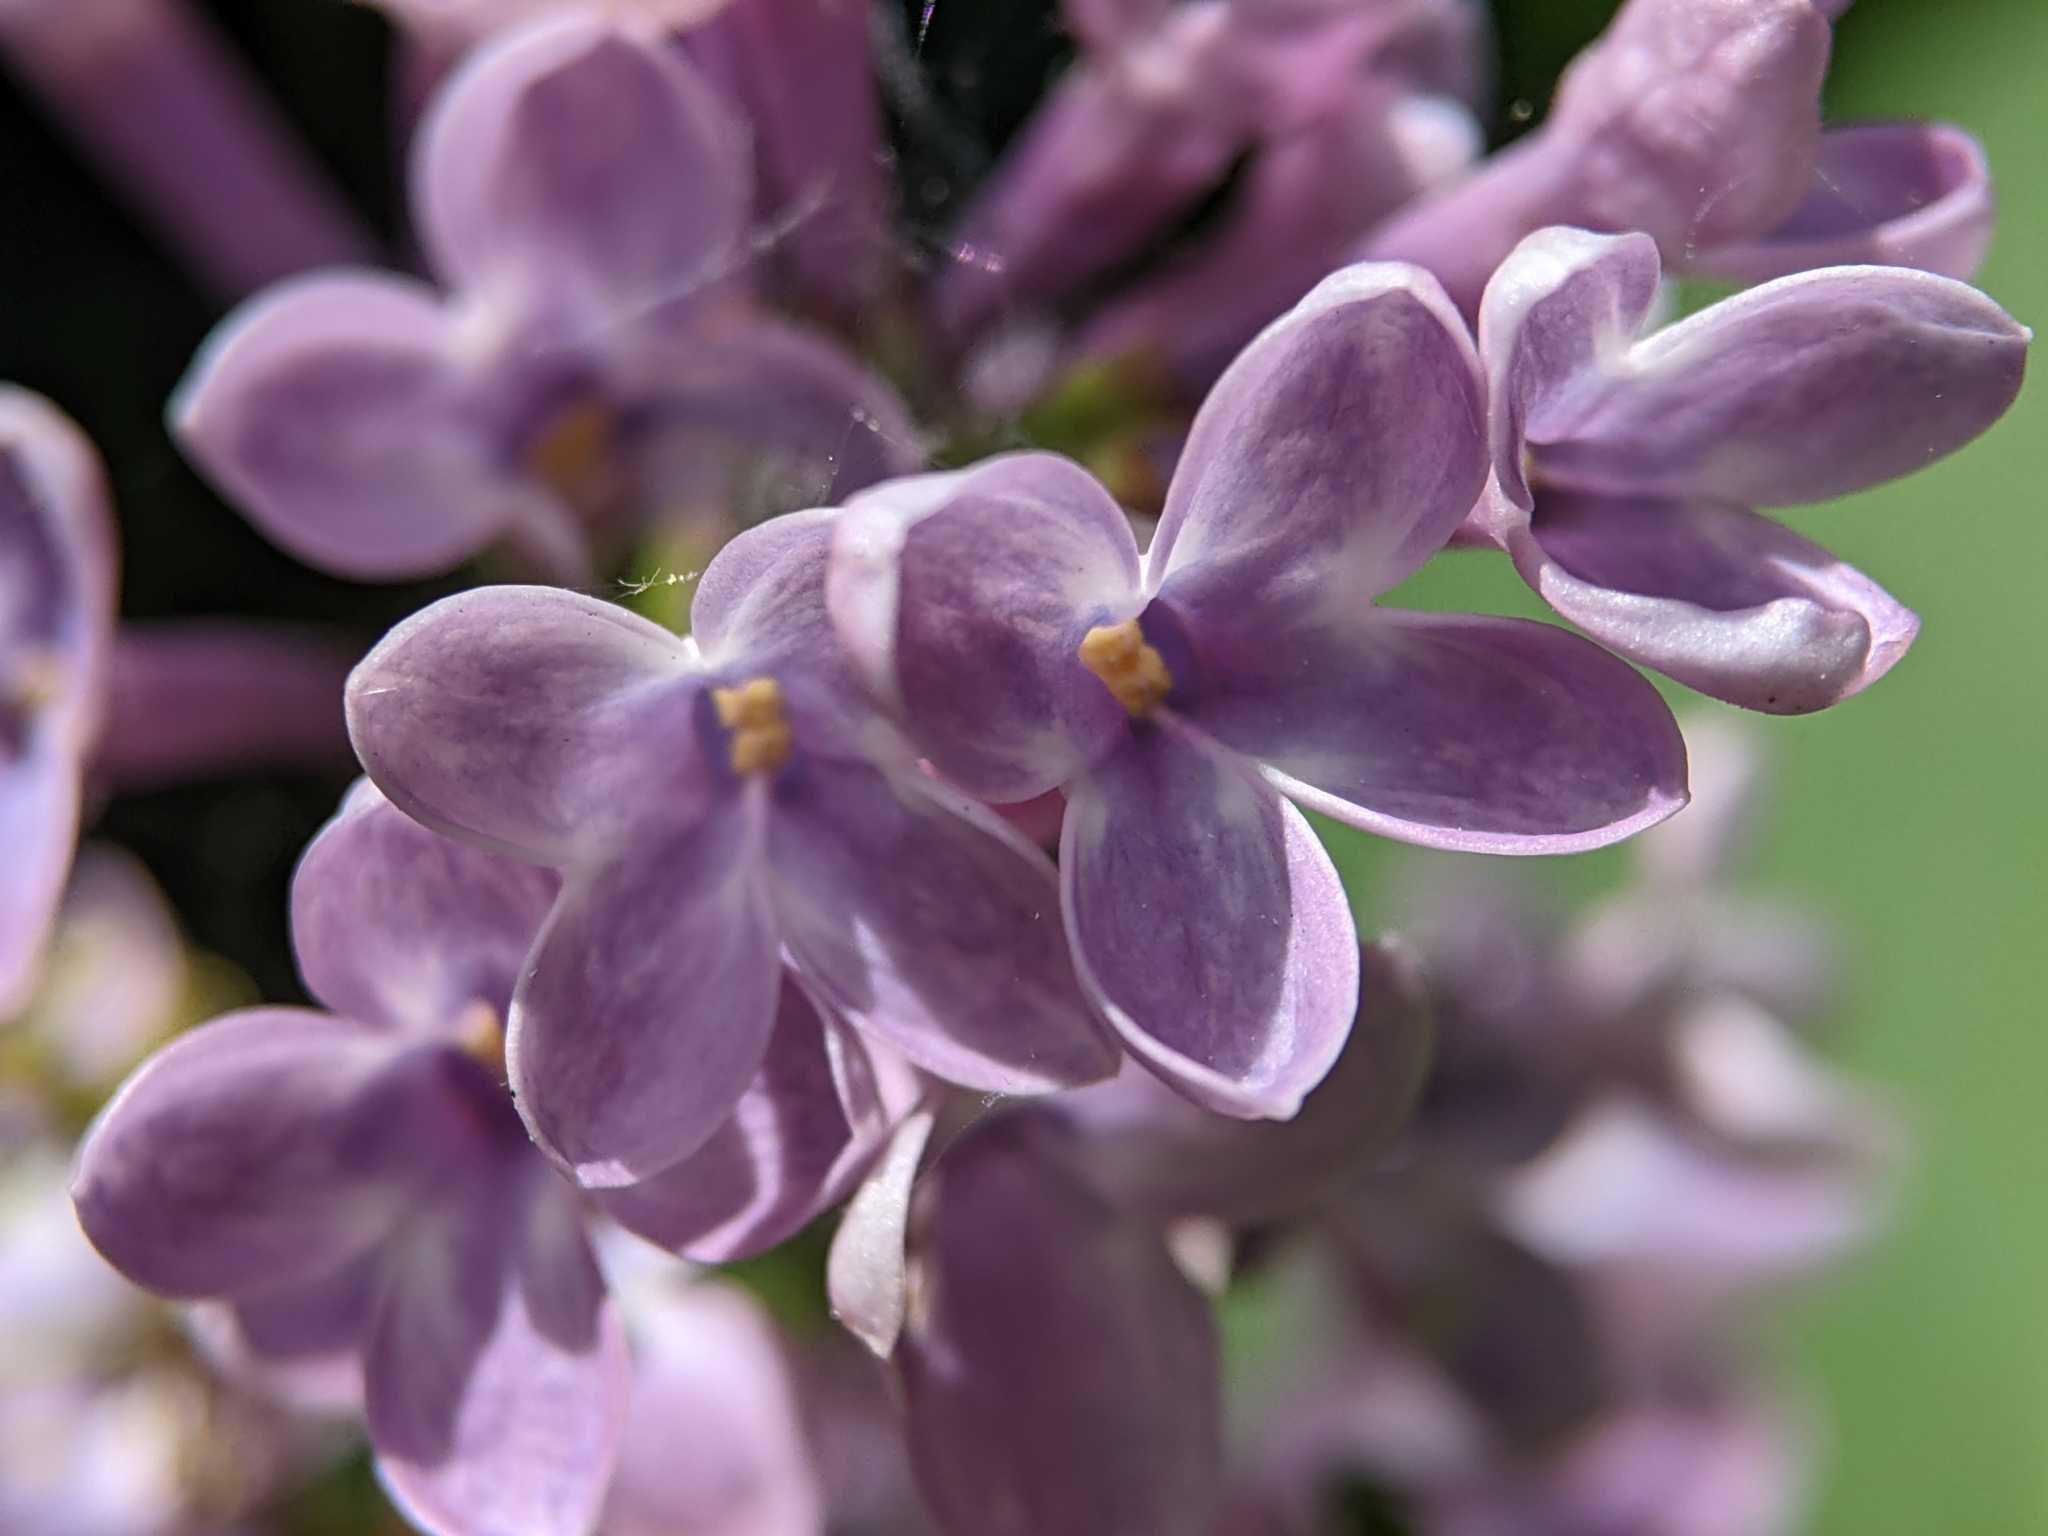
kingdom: Plantae
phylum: Tracheophyta
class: Magnoliopsida
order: Lamiales
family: Oleaceae
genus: Syringa
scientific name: Syringa vulgaris
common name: Common lilac
